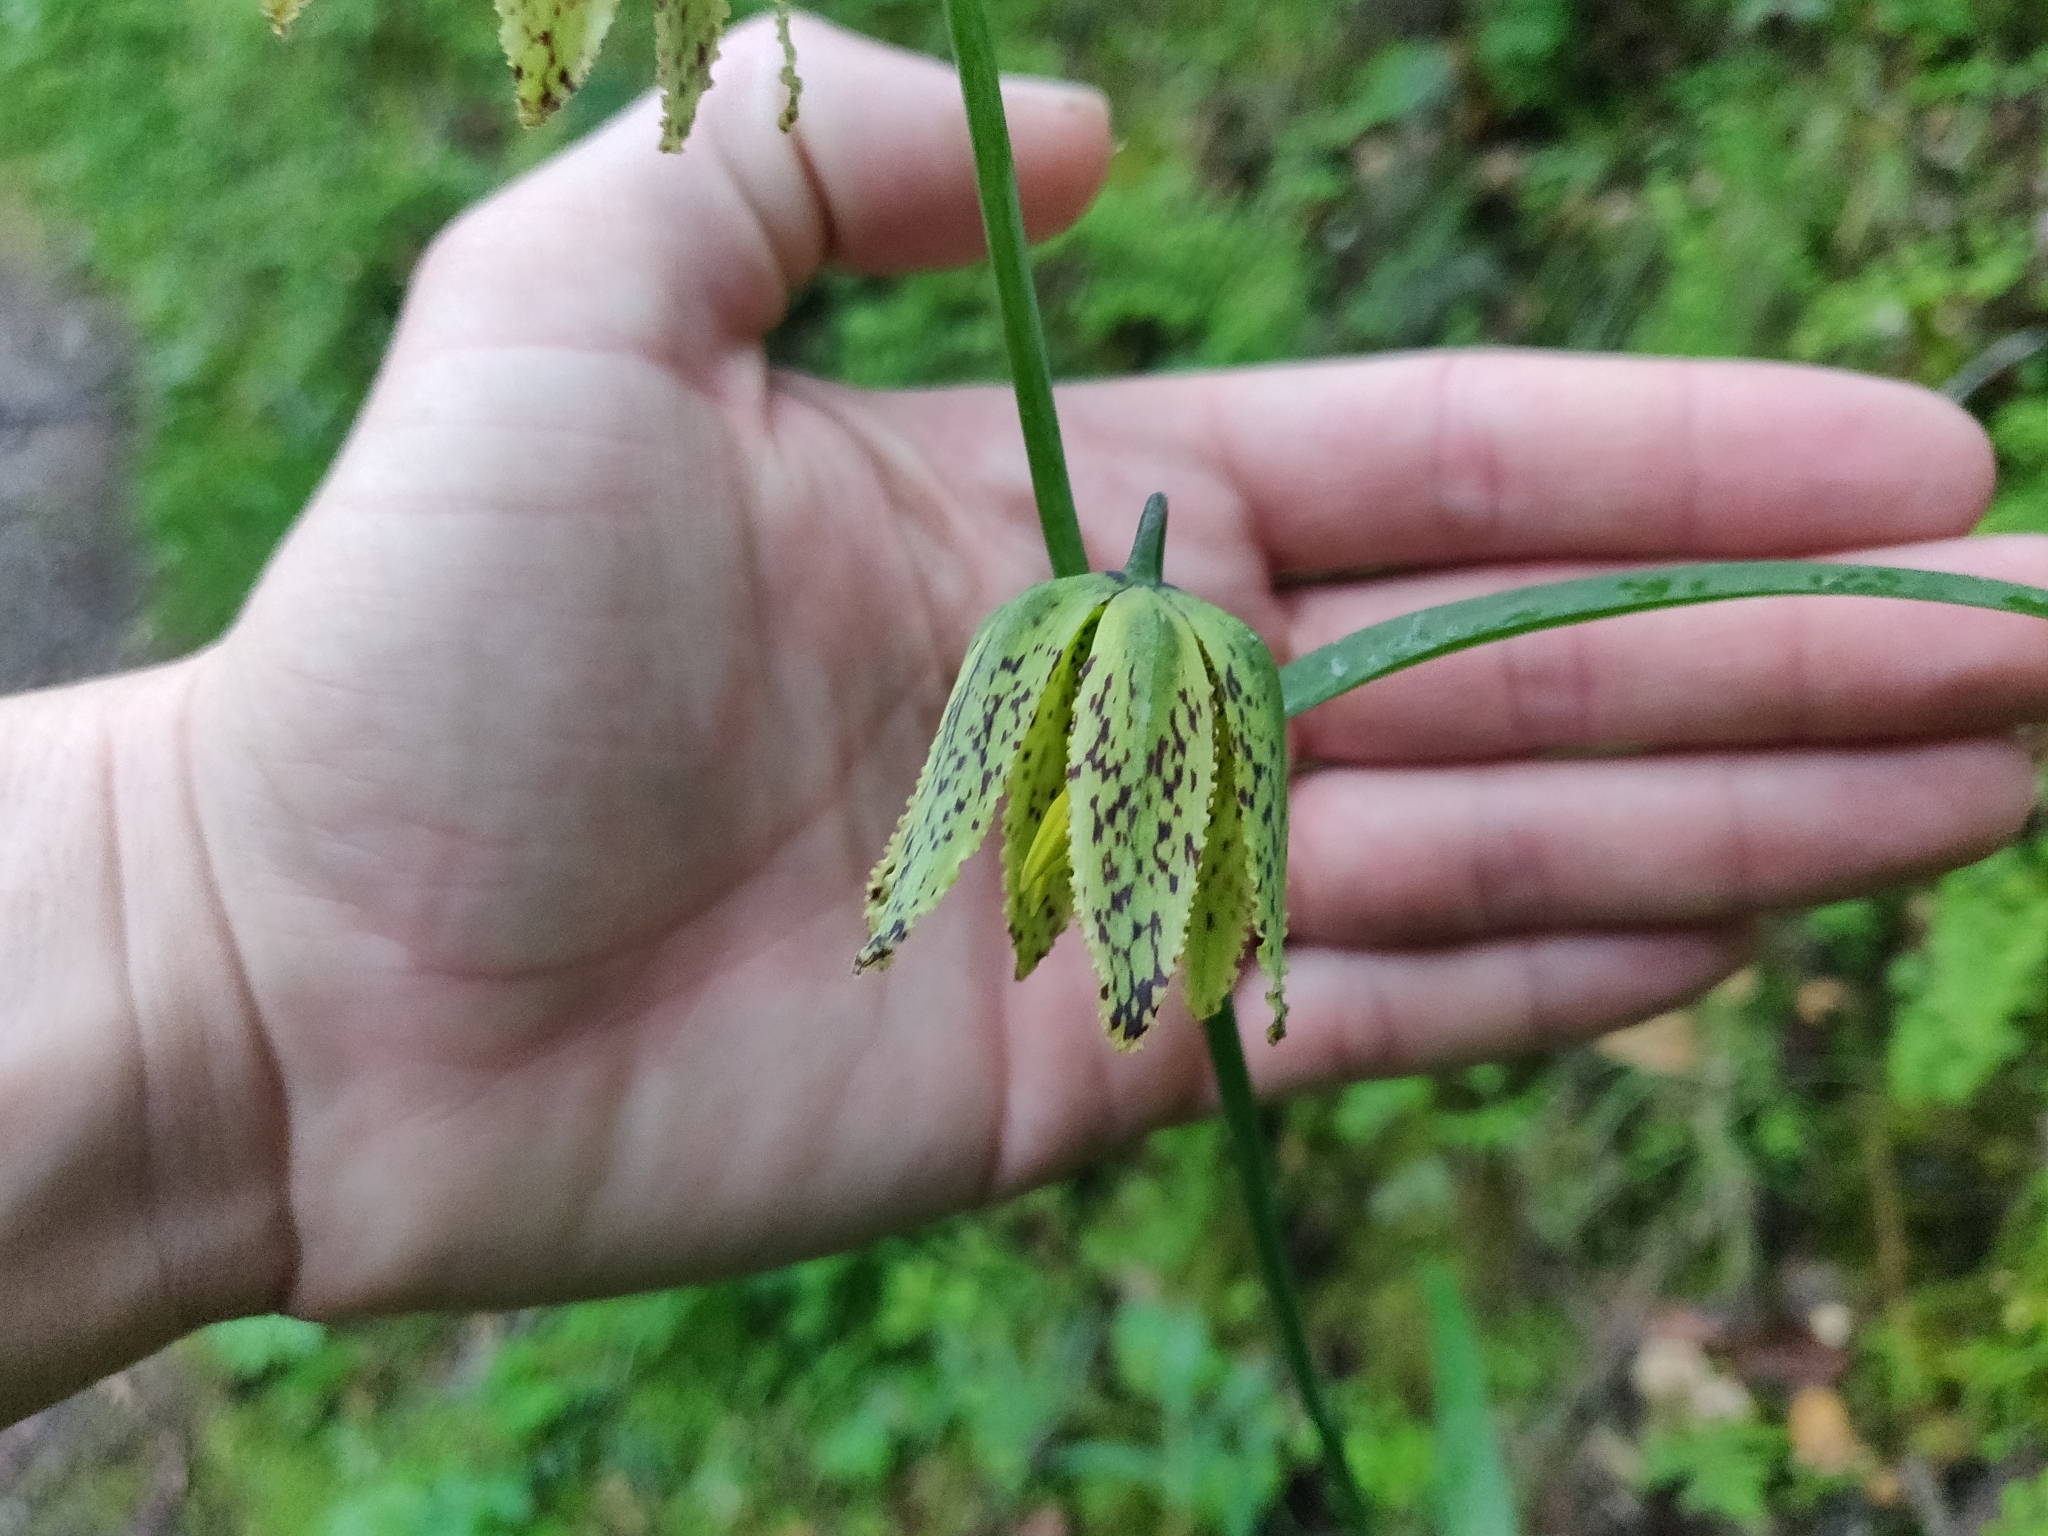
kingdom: Plantae
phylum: Tracheophyta
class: Liliopsida
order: Liliales
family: Liliaceae
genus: Fritillaria
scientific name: Fritillaria affinis
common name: Ojai fritillary
